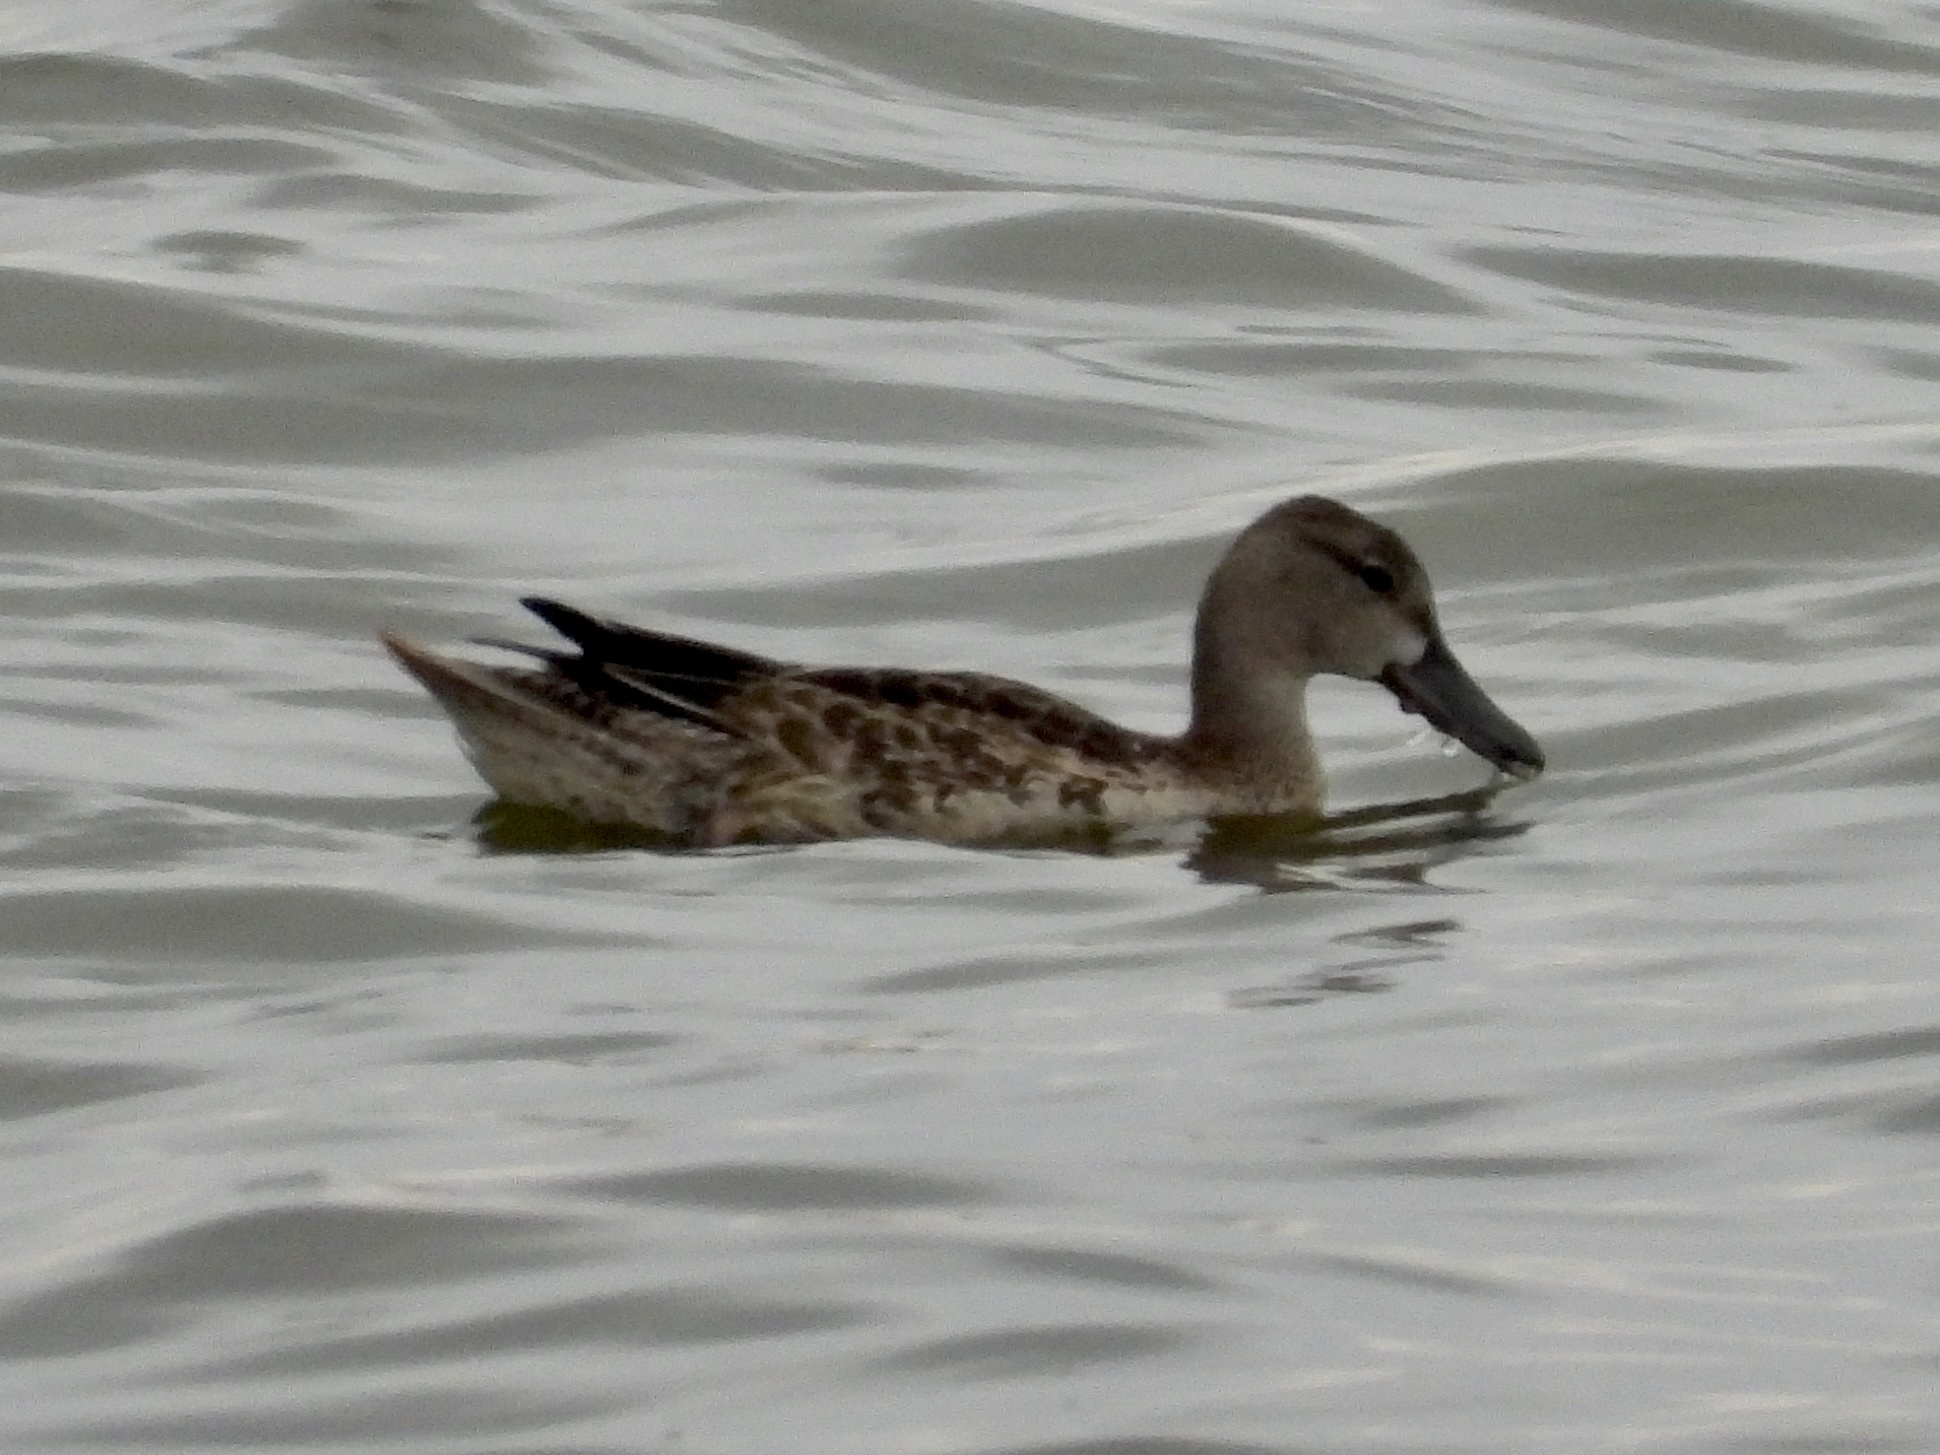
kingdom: Animalia
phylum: Chordata
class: Aves
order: Anseriformes
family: Anatidae
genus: Spatula
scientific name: Spatula discors
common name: Blue-winged teal
